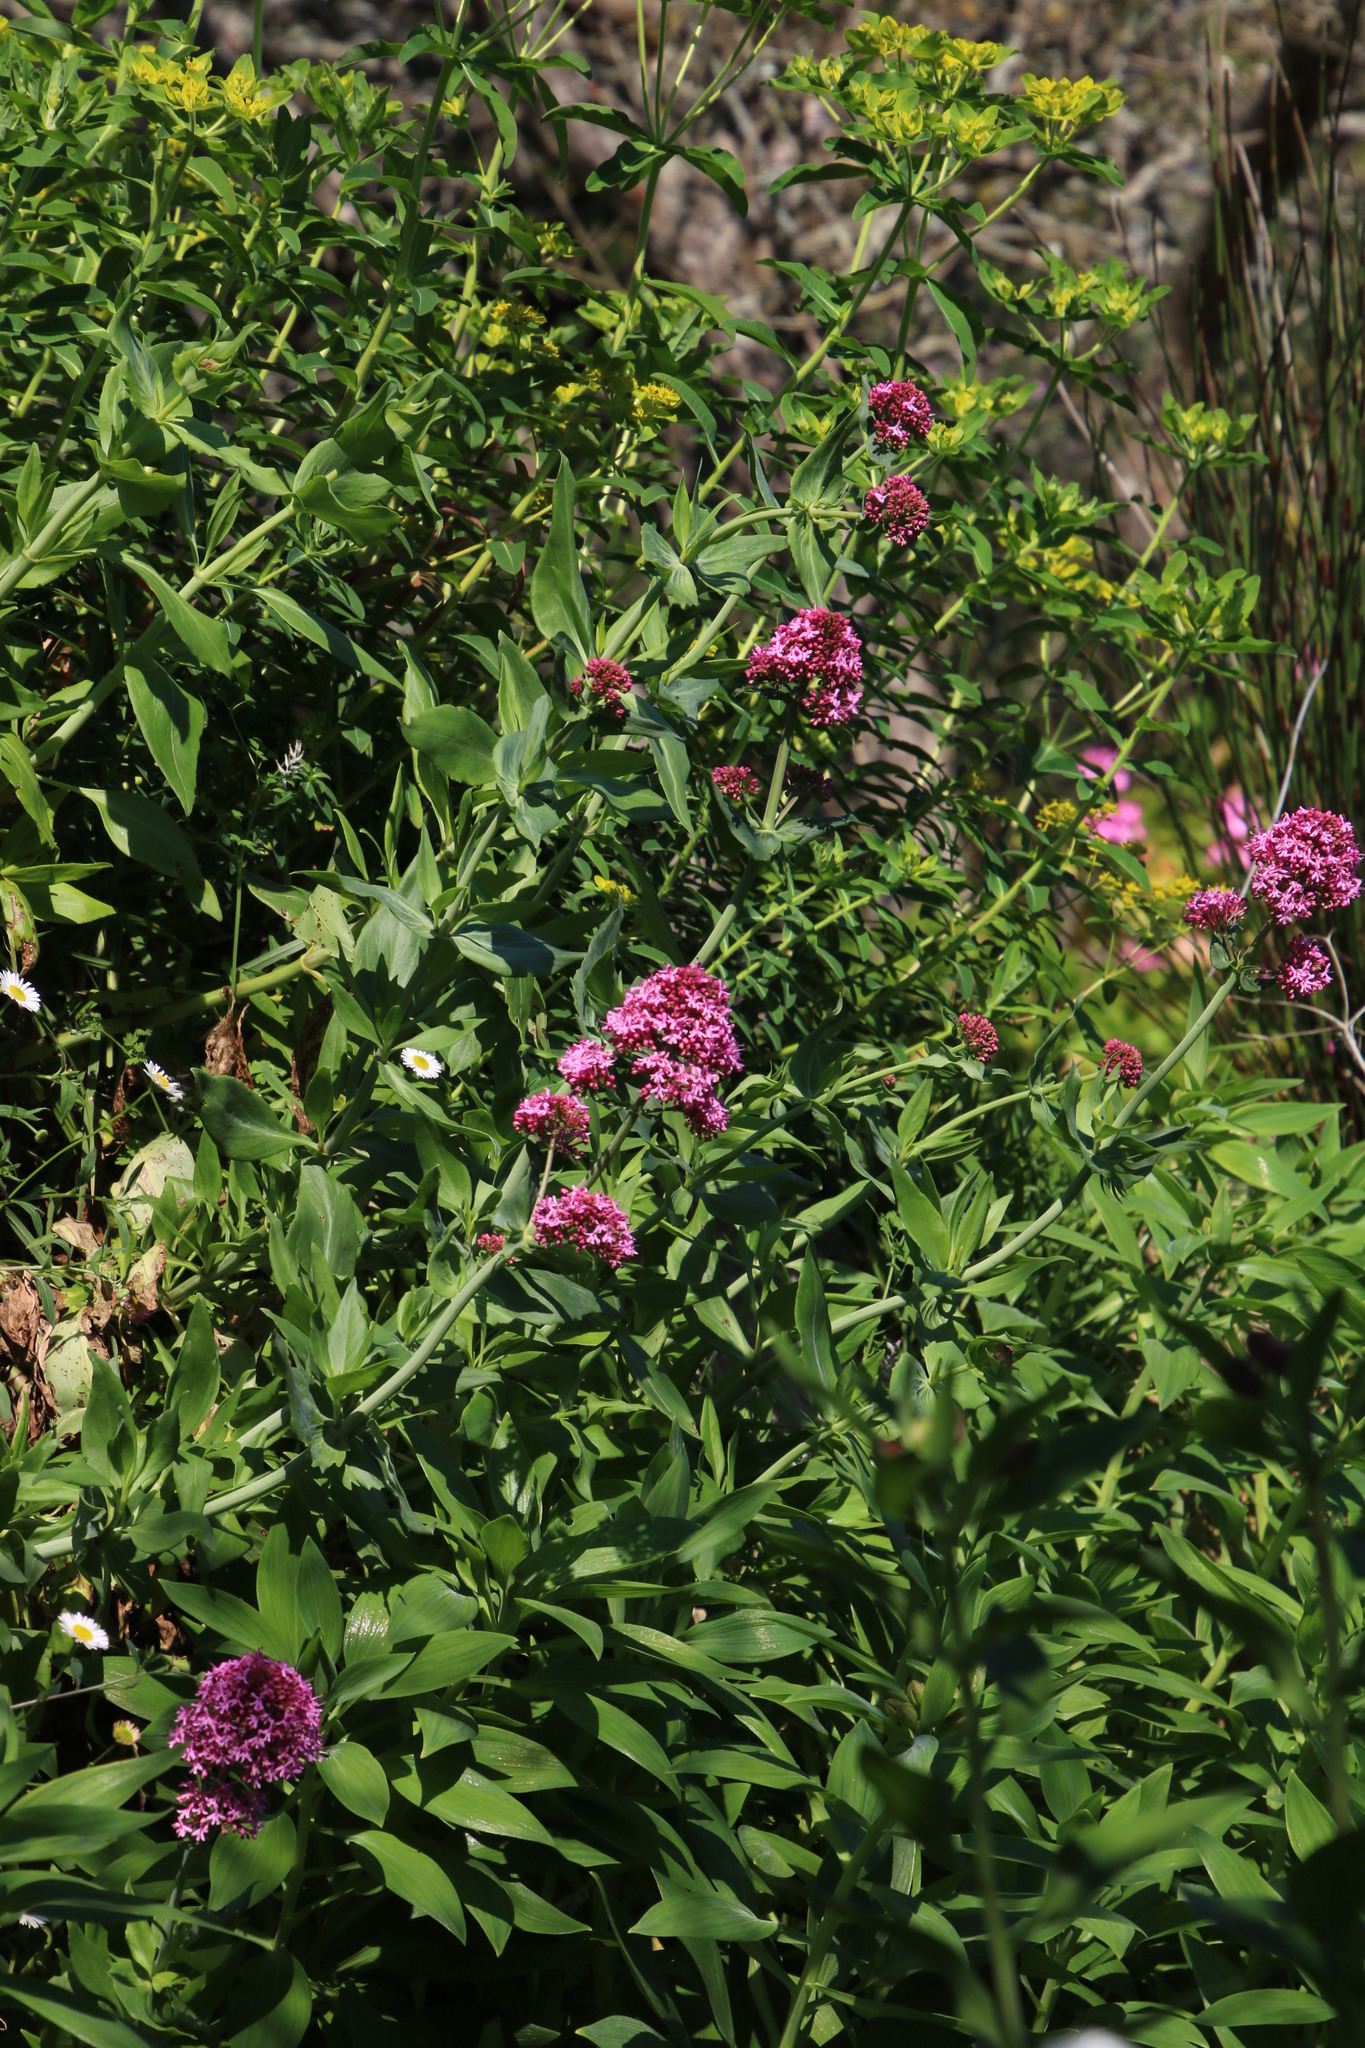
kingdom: Plantae
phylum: Tracheophyta
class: Magnoliopsida
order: Dipsacales
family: Caprifoliaceae
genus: Centranthus
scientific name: Centranthus ruber
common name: Red valerian
